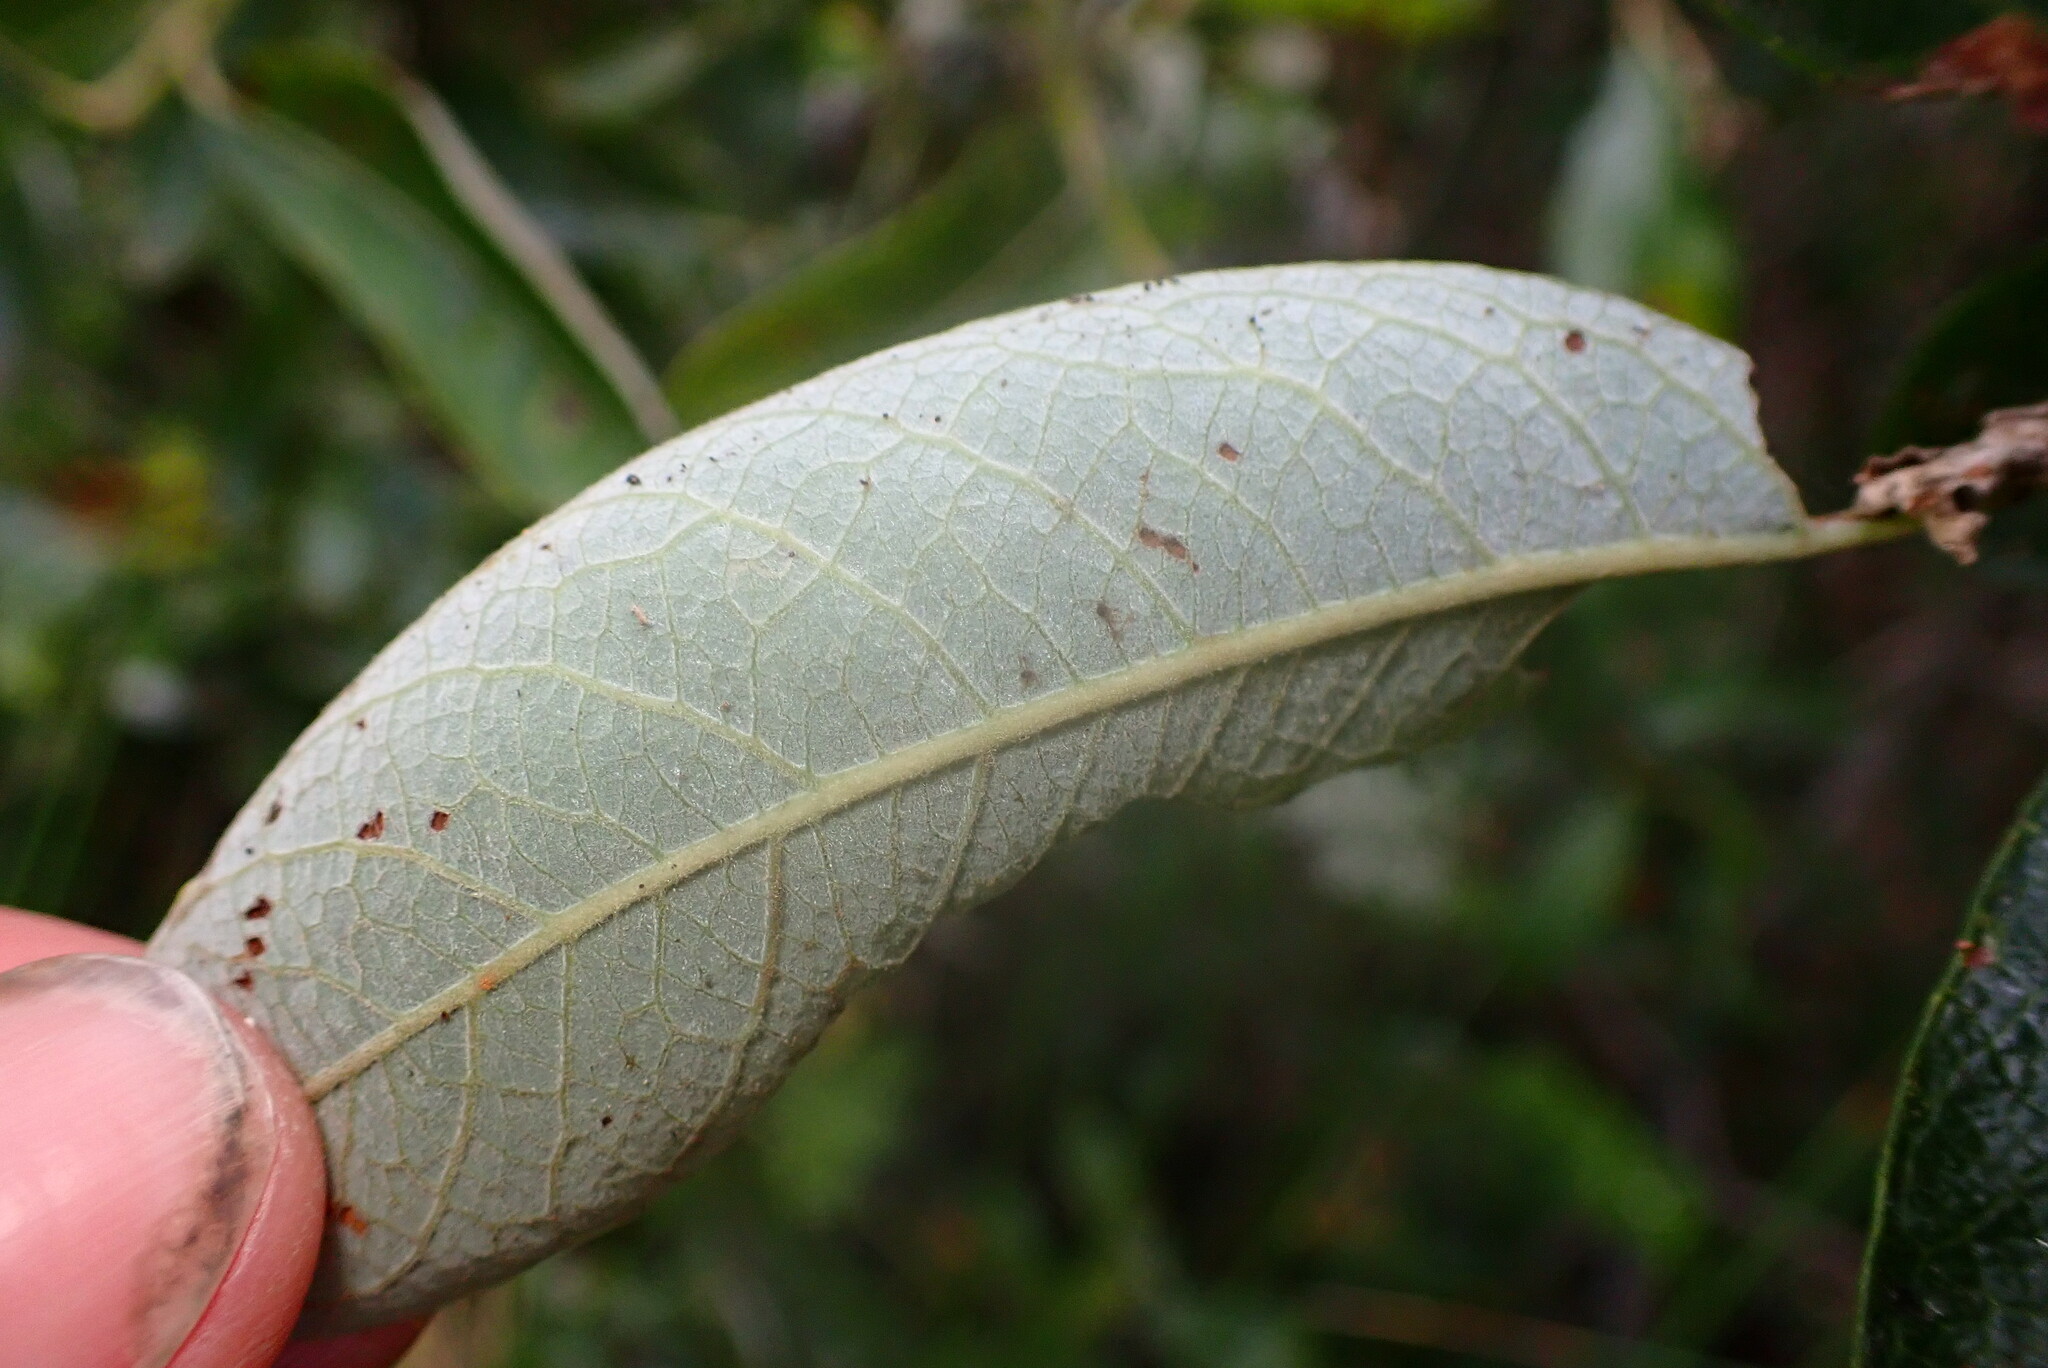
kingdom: Plantae
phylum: Tracheophyta
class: Magnoliopsida
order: Malpighiales
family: Salicaceae
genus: Salix
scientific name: Salix lasiolepis
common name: Arroyo willow
